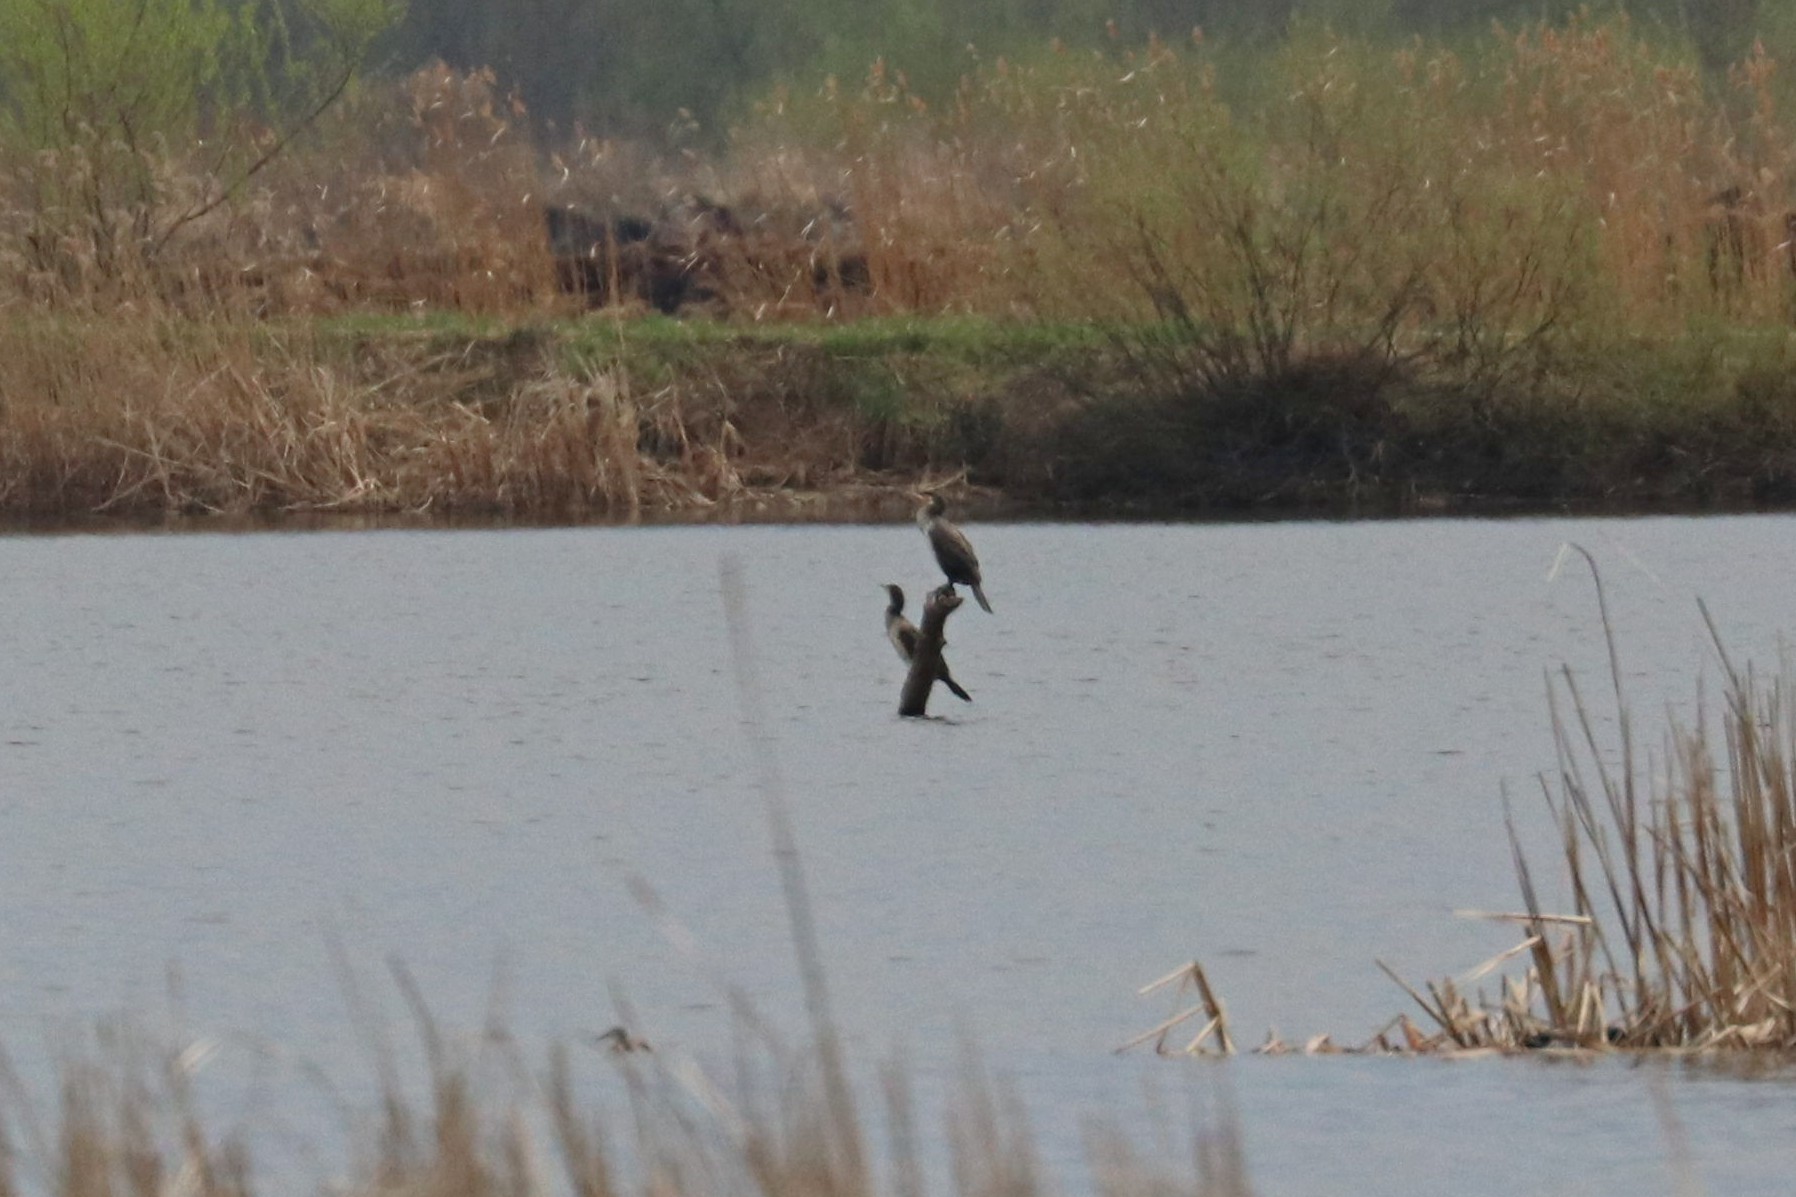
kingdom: Animalia
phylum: Chordata
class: Aves
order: Suliformes
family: Phalacrocoracidae
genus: Phalacrocorax
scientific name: Phalacrocorax carbo
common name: Great cormorant
